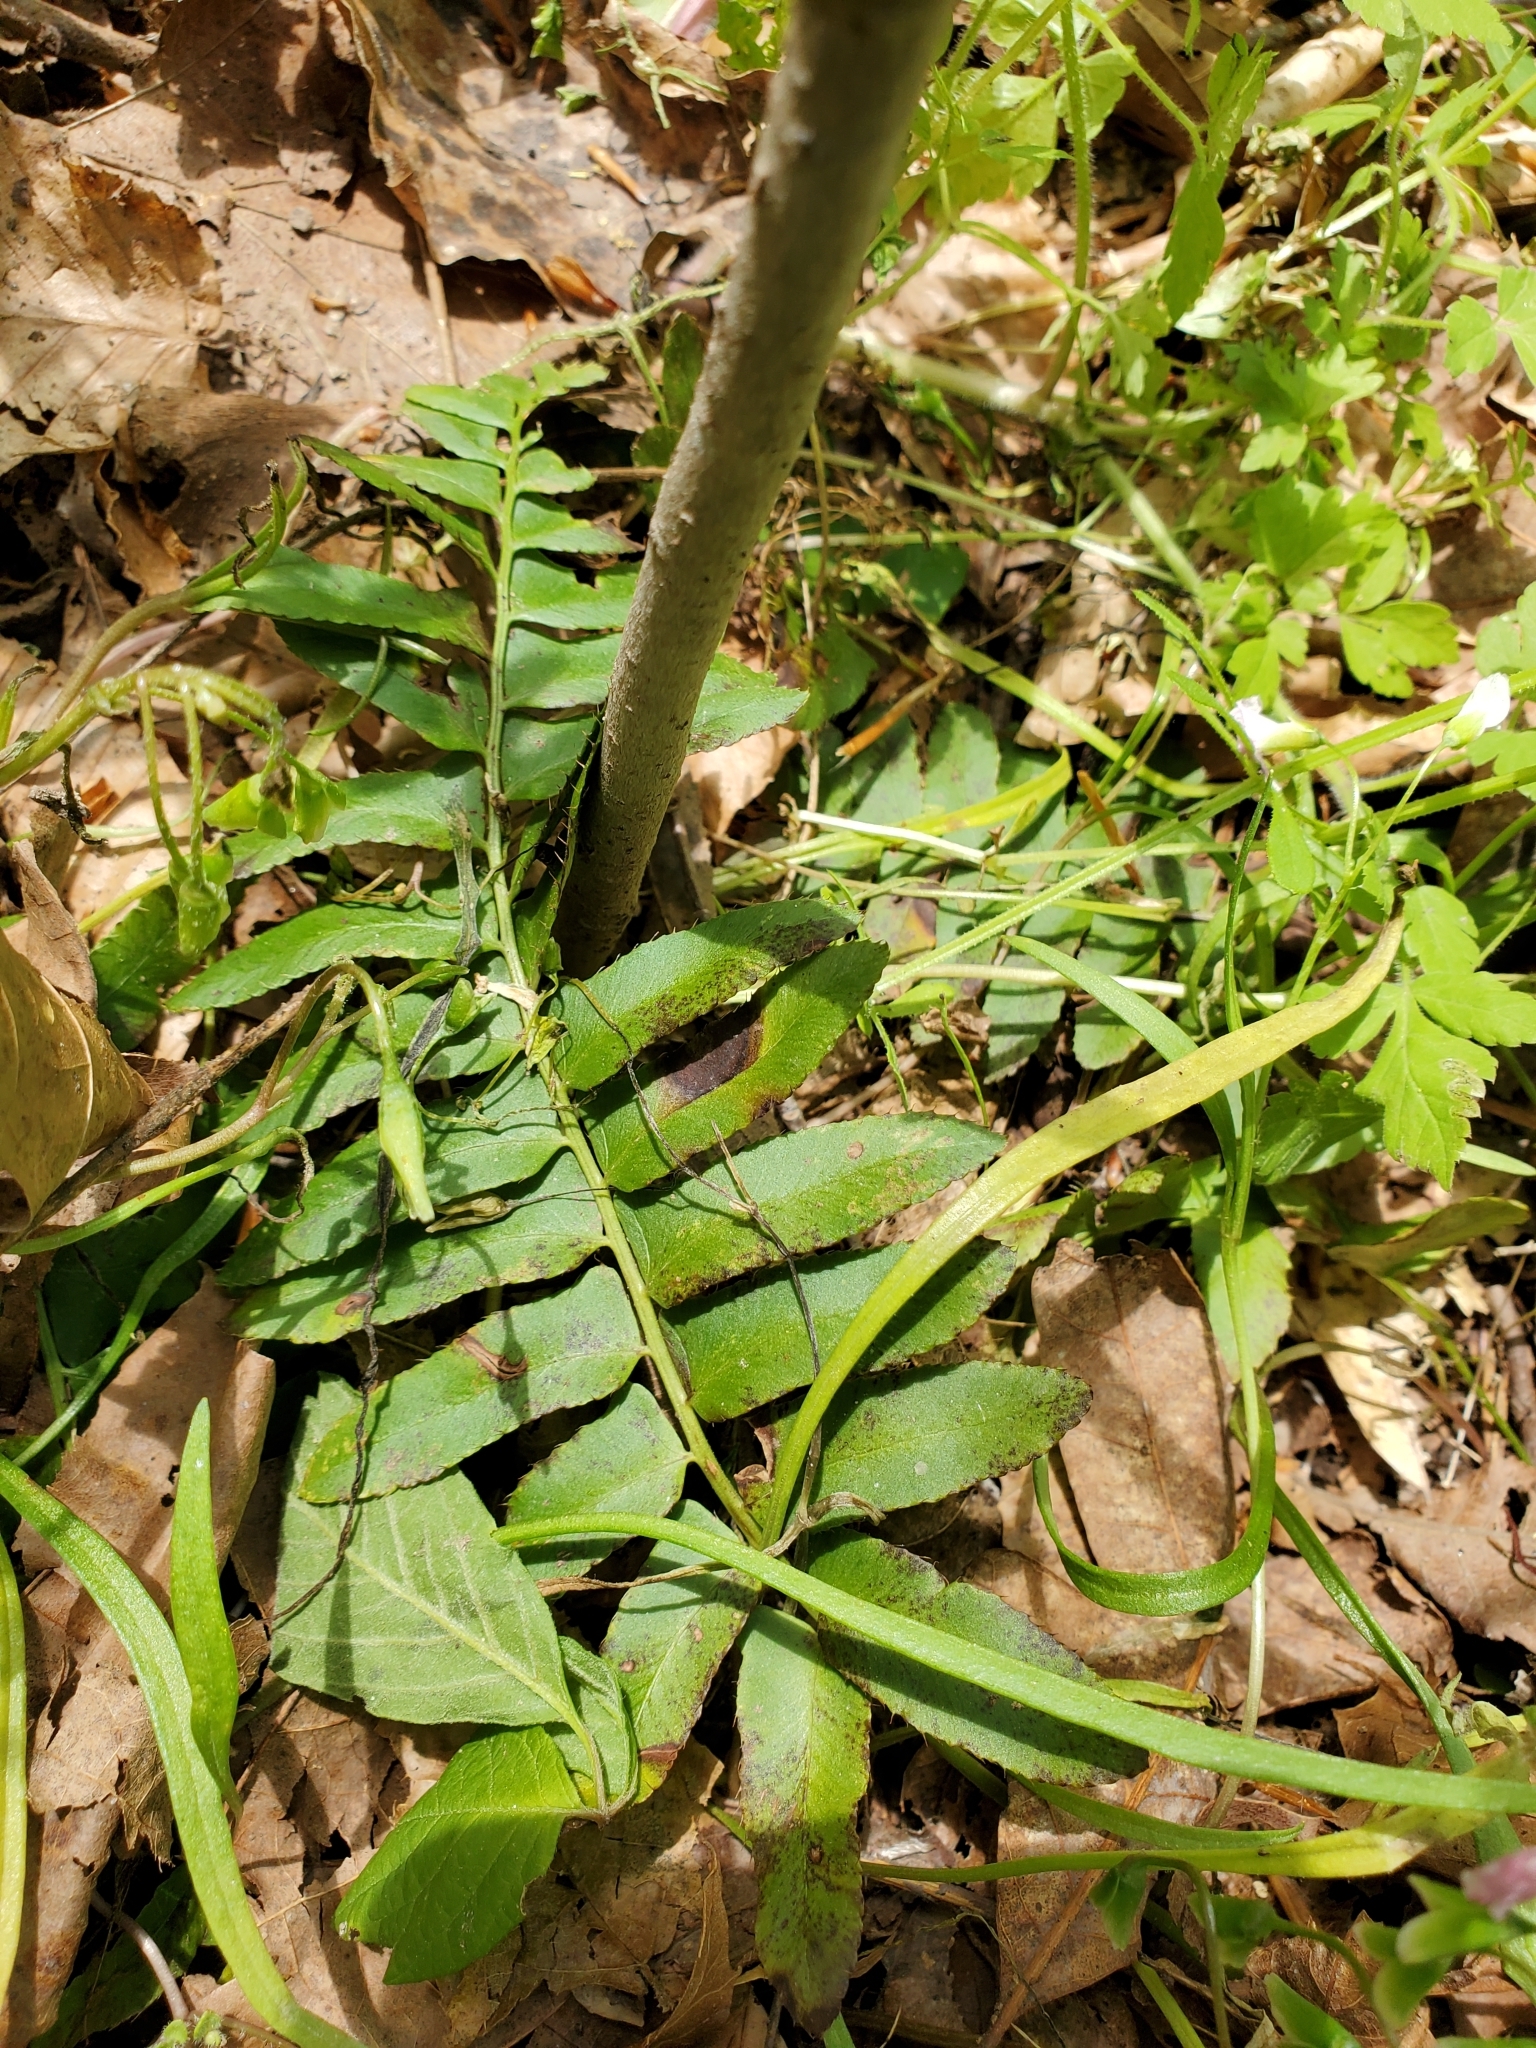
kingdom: Plantae
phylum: Tracheophyta
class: Polypodiopsida
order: Polypodiales
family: Dryopteridaceae
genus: Polystichum
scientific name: Polystichum acrostichoides
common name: Christmas fern
